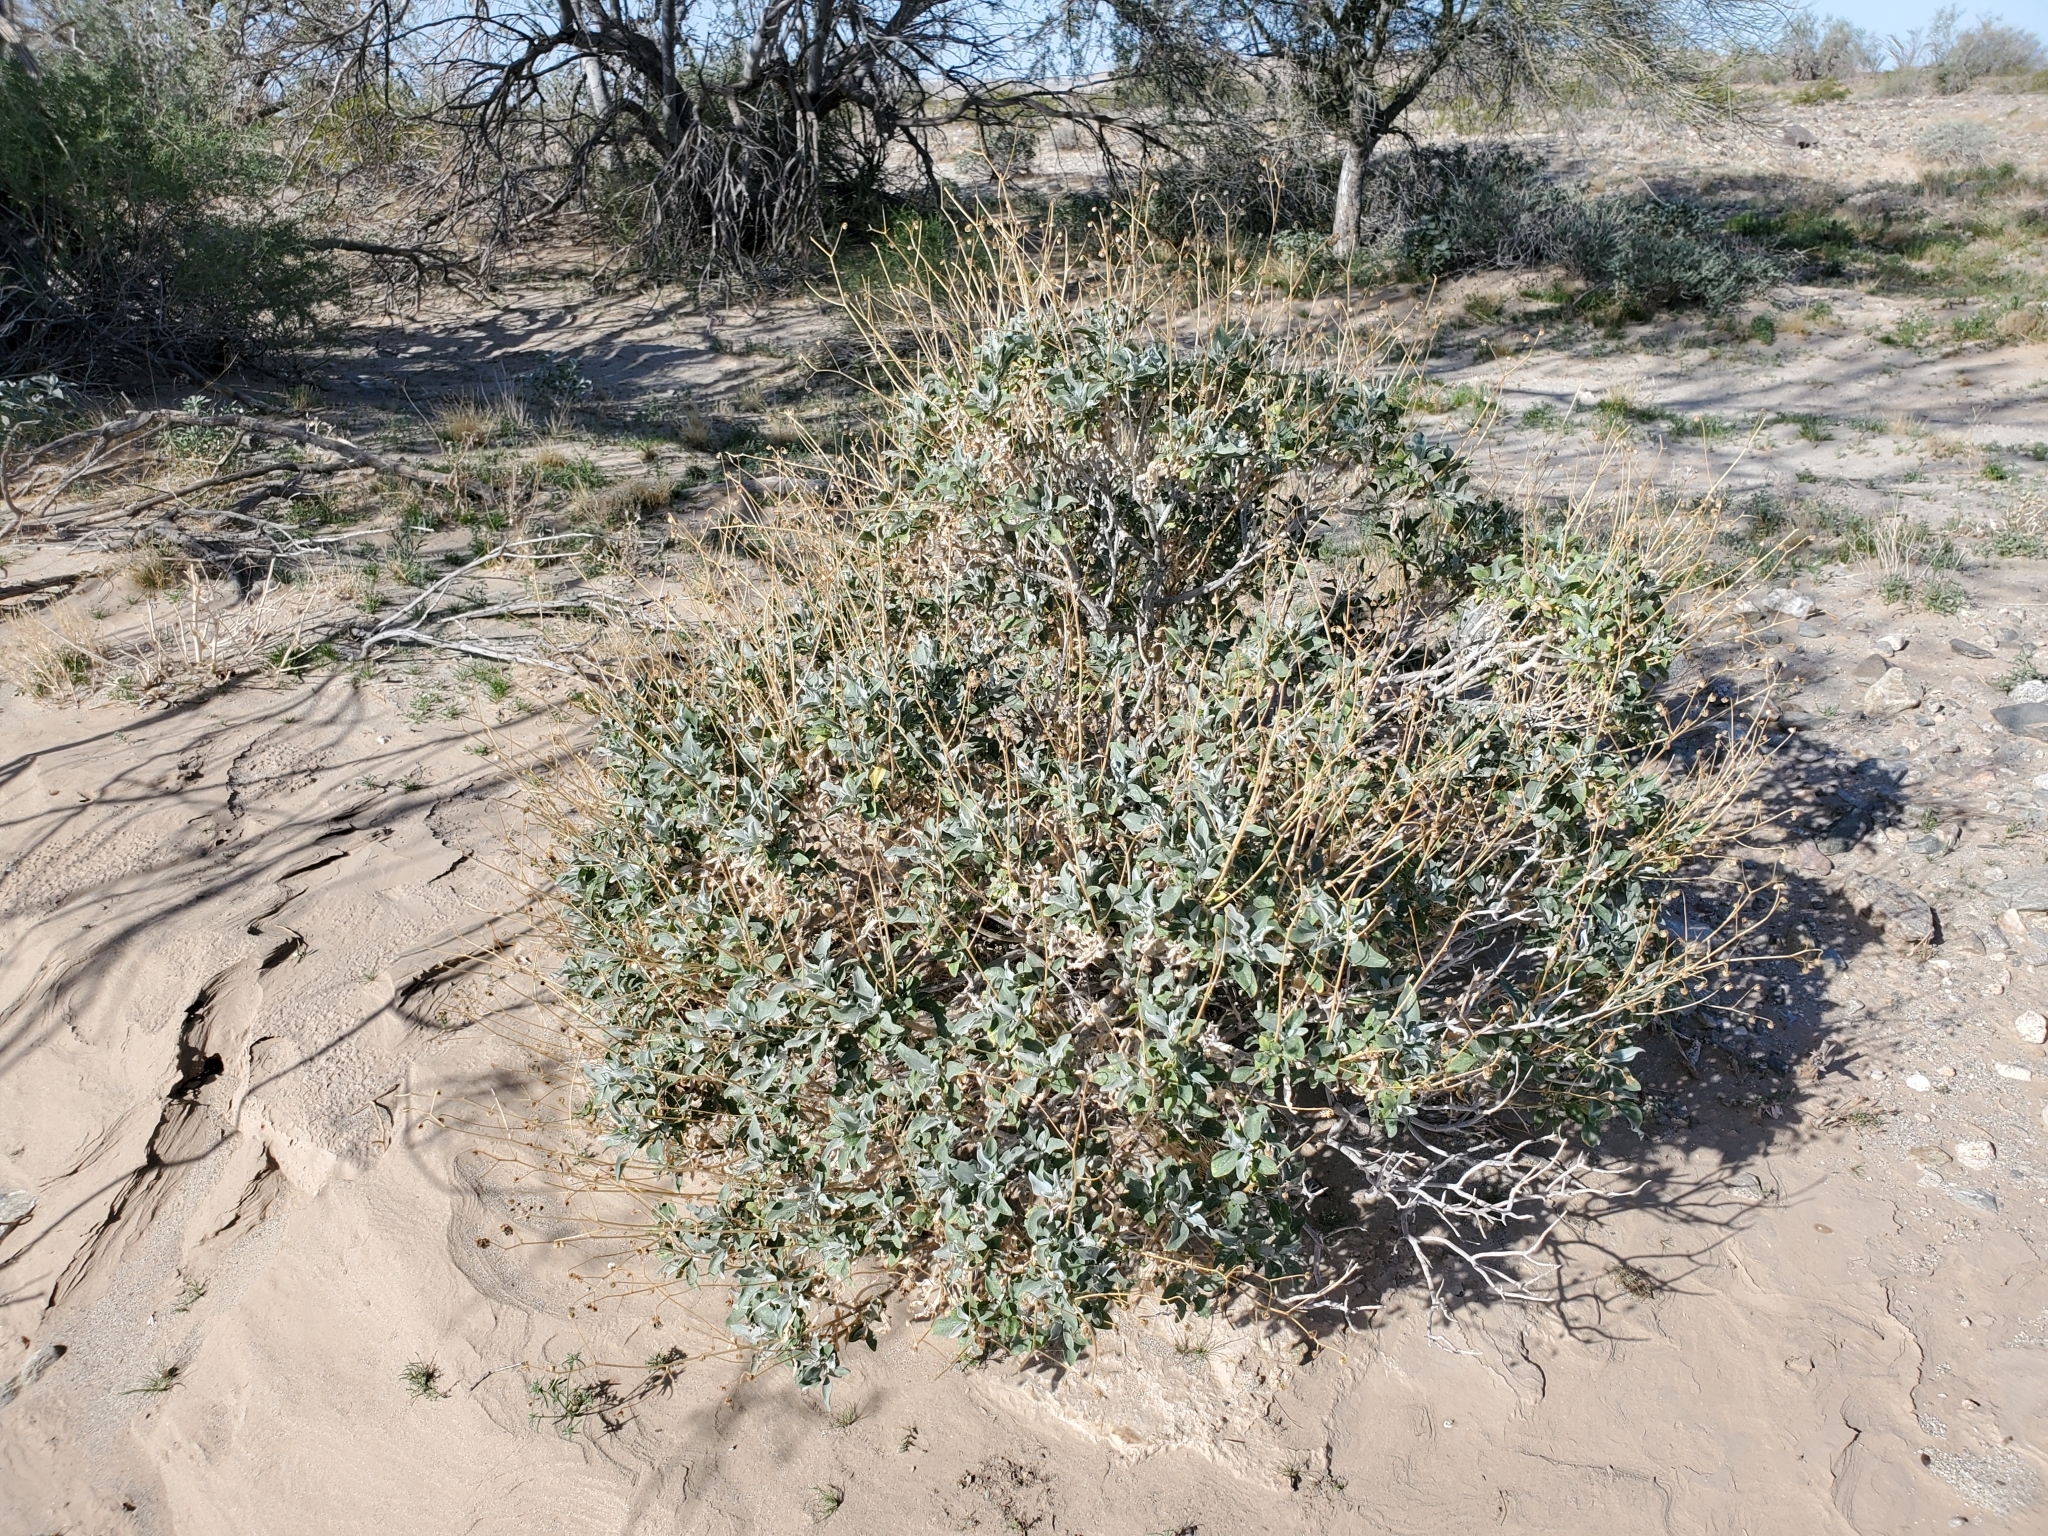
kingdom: Plantae
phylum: Tracheophyta
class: Magnoliopsida
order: Asterales
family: Asteraceae
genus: Encelia
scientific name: Encelia farinosa
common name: Brittlebush
